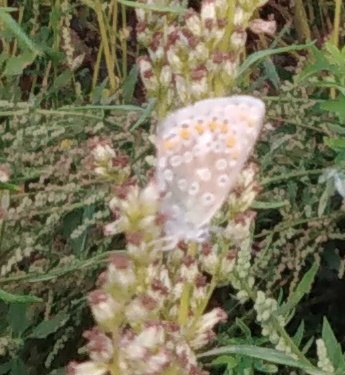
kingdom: Animalia
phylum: Arthropoda
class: Insecta
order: Lepidoptera
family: Lycaenidae
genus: Polyommatus
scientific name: Polyommatus icarus
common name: Common blue
